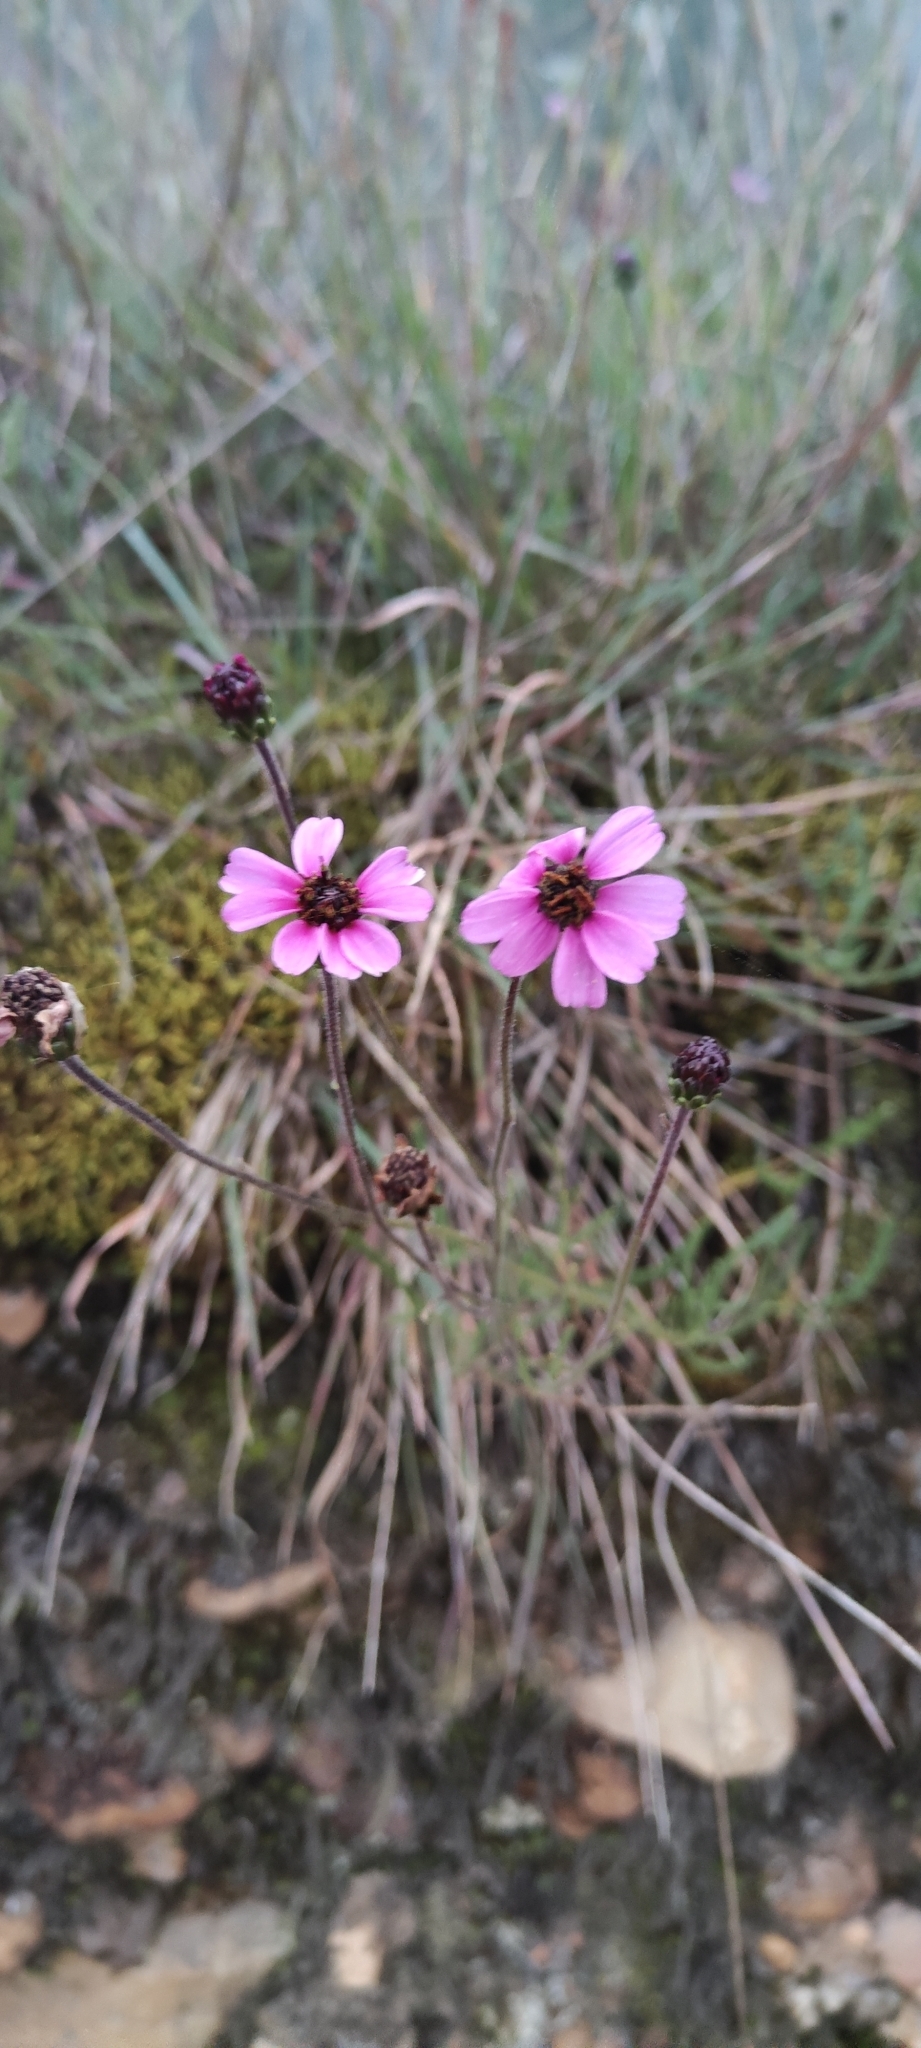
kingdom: Plantae
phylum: Tracheophyta
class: Magnoliopsida
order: Asterales
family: Asteraceae
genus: Tridax
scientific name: Tridax peruviensis
